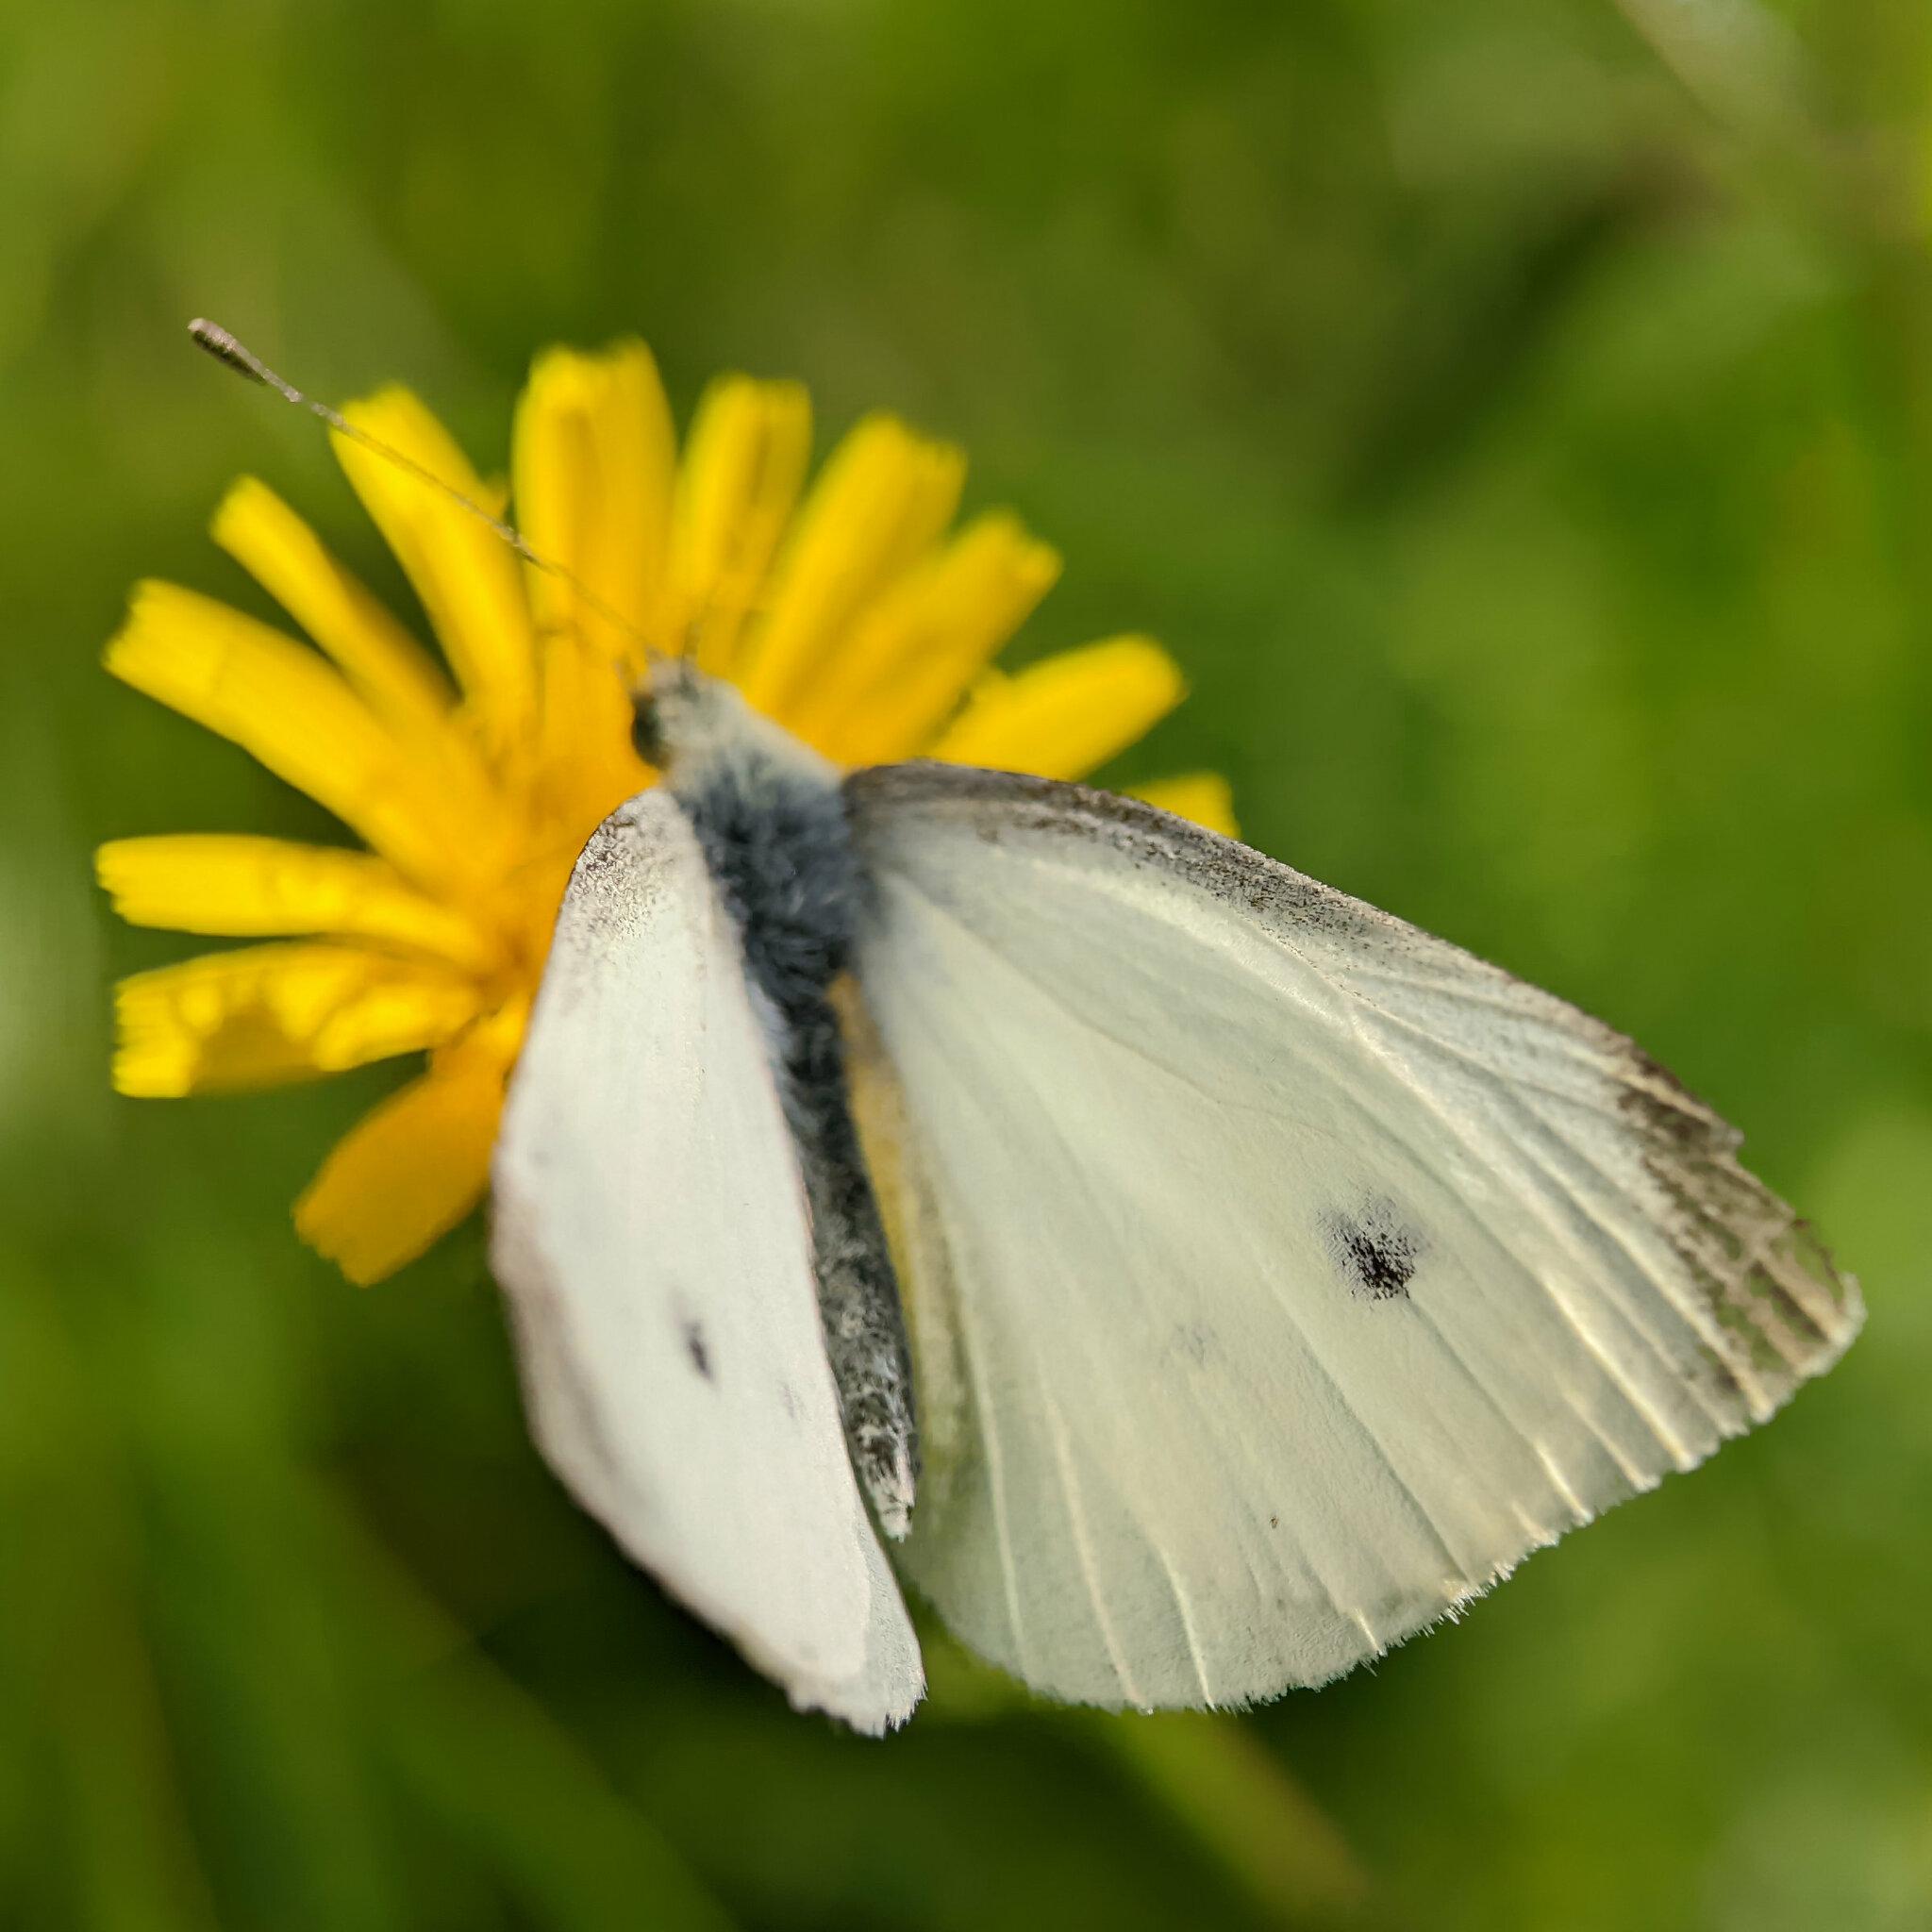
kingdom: Animalia
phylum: Arthropoda
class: Insecta
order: Lepidoptera
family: Pieridae
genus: Pieris
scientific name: Pieris rapae
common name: Small white
